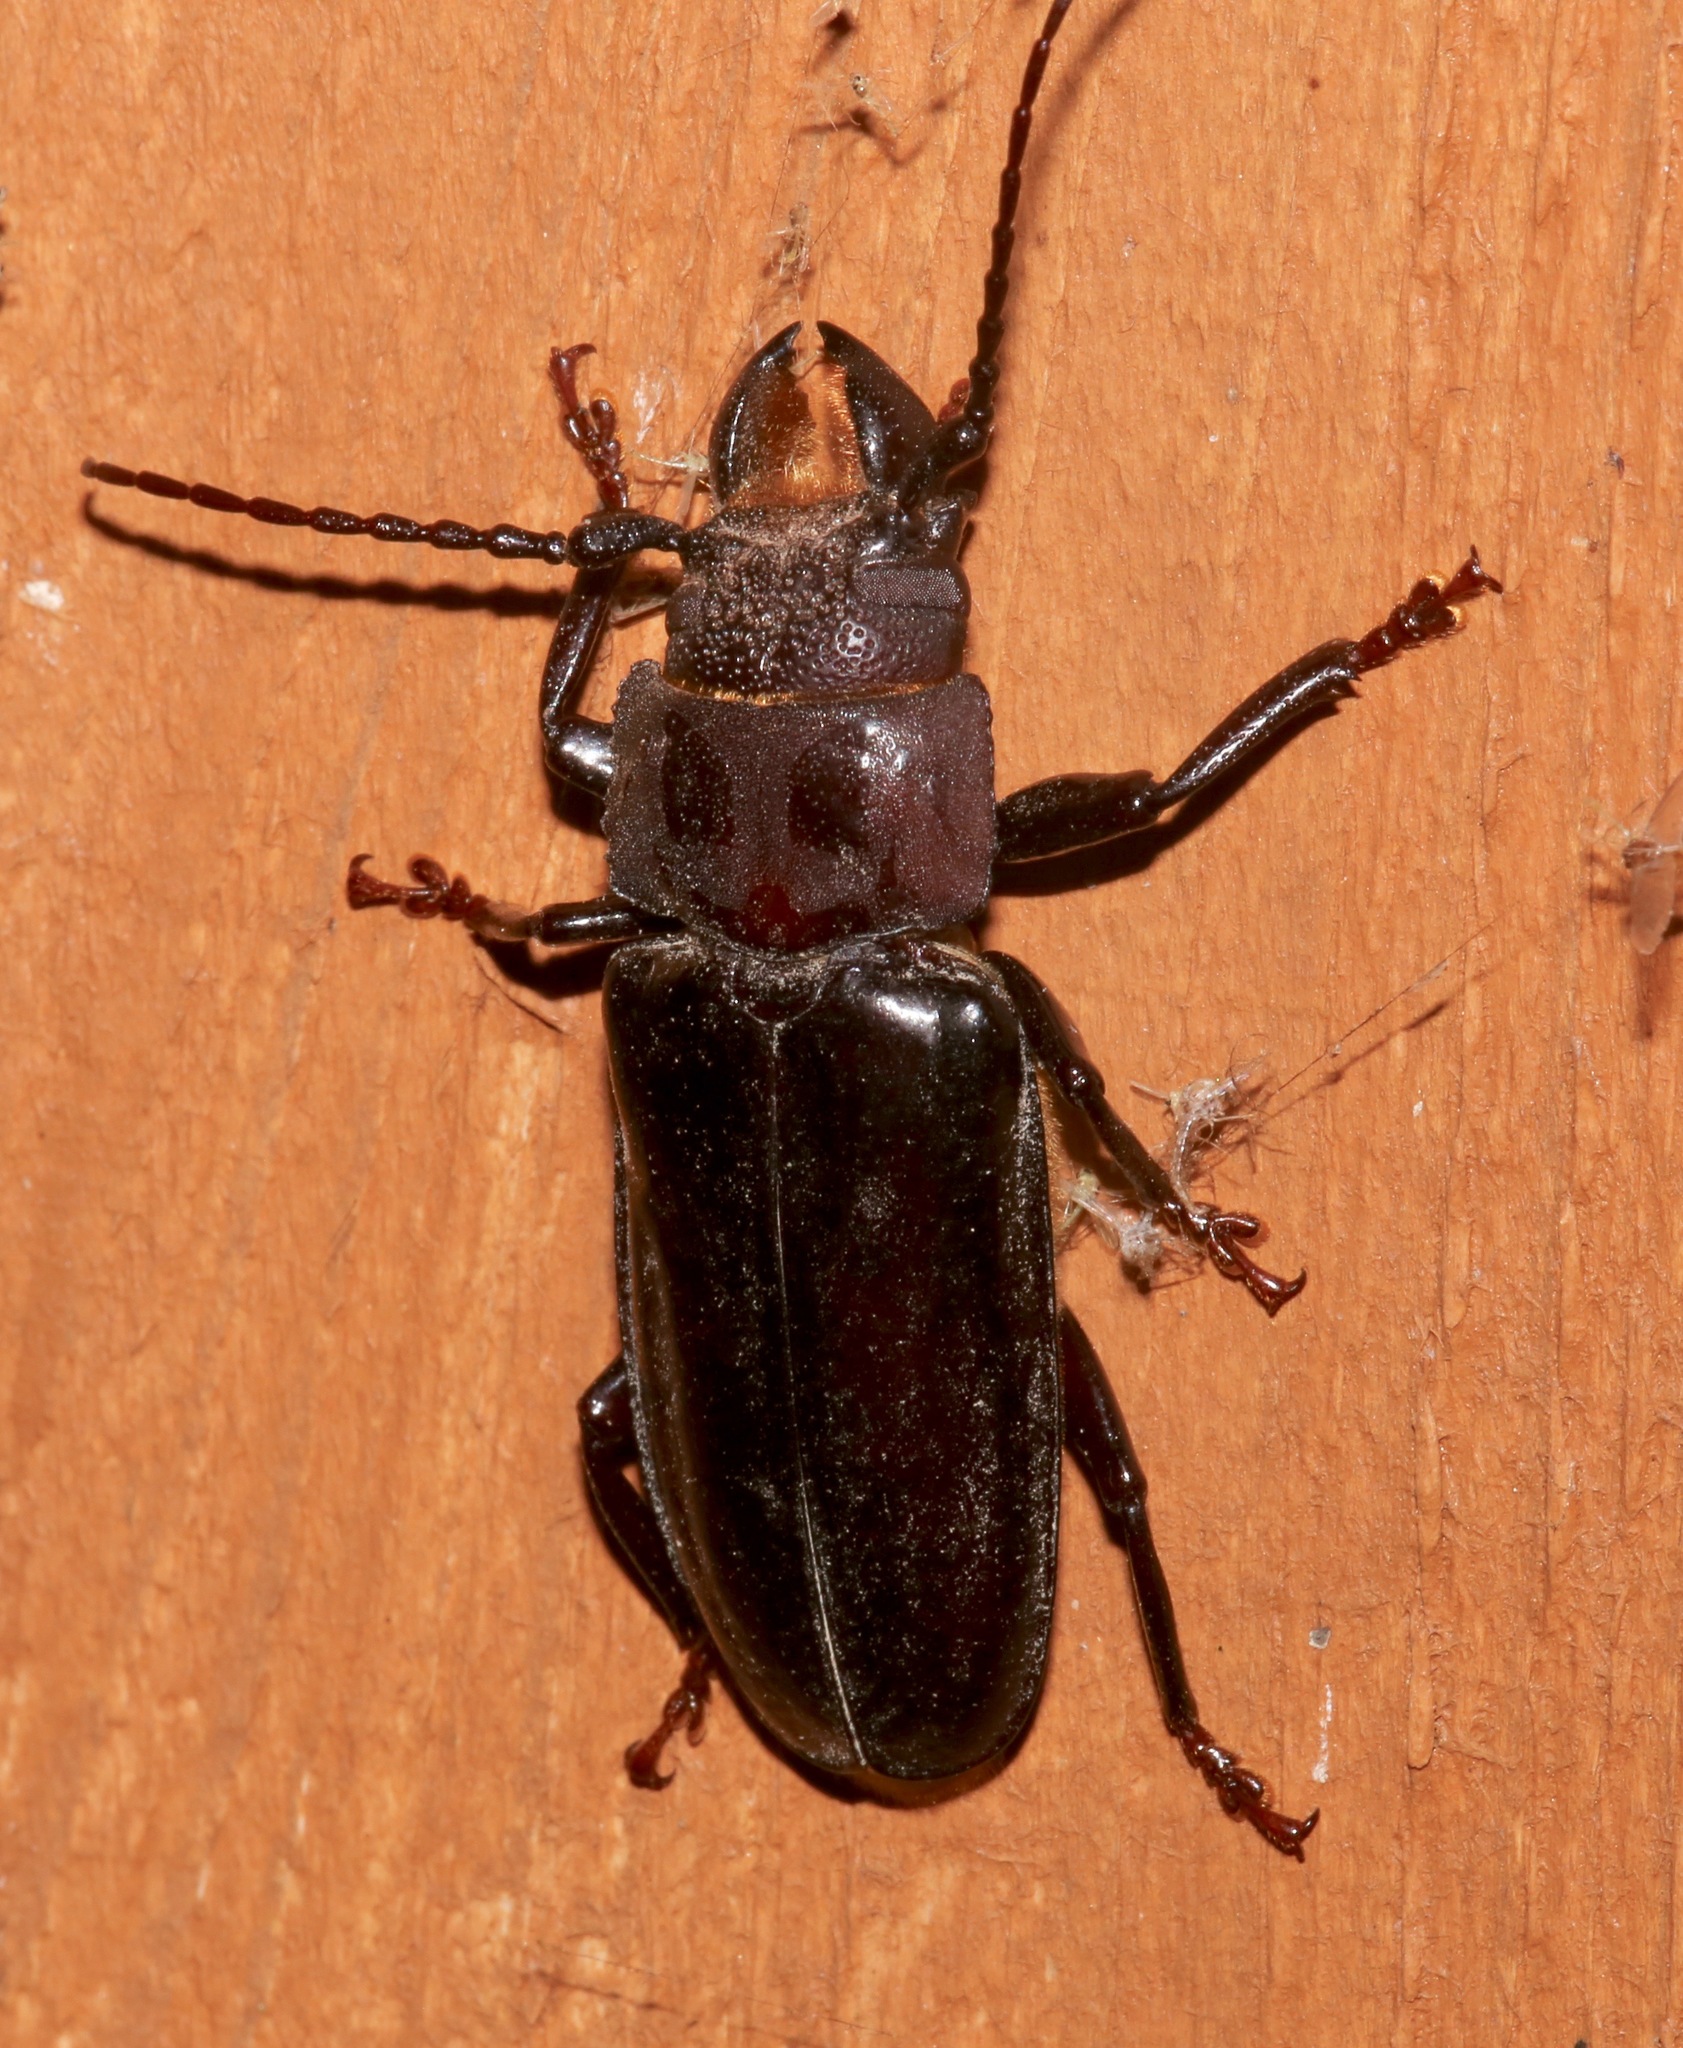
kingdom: Animalia
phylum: Arthropoda
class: Insecta
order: Coleoptera
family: Cerambycidae
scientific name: Cerambycidae
